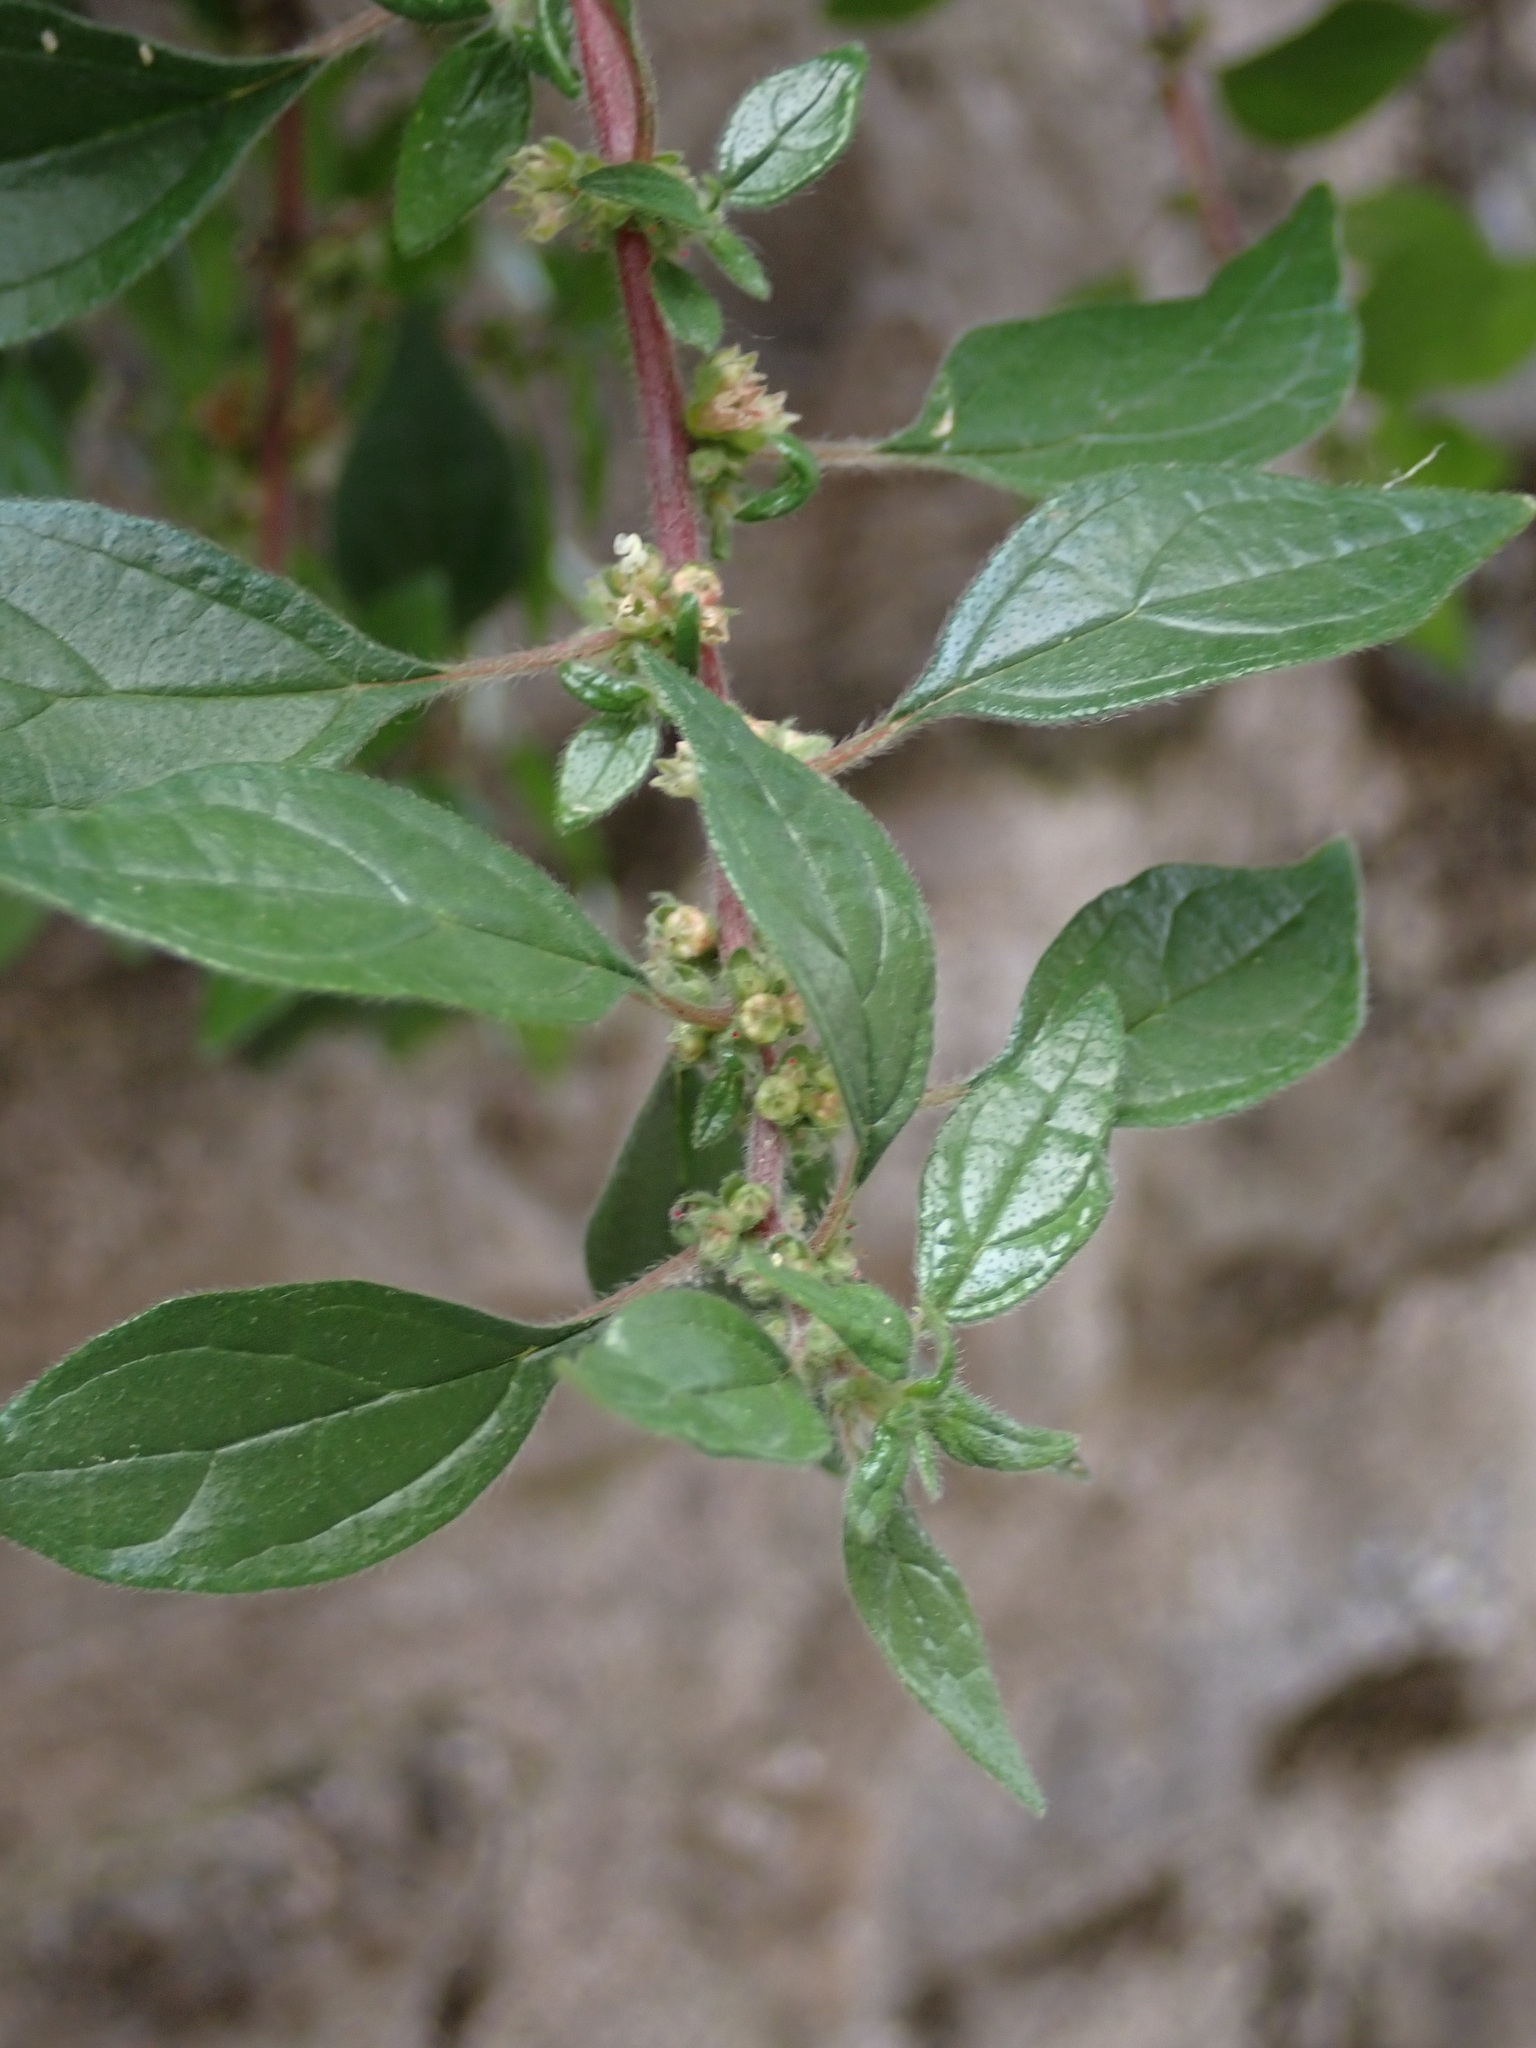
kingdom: Plantae
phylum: Tracheophyta
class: Magnoliopsida
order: Rosales
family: Urticaceae
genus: Parietaria
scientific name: Parietaria judaica
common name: Pellitory-of-the-wall
